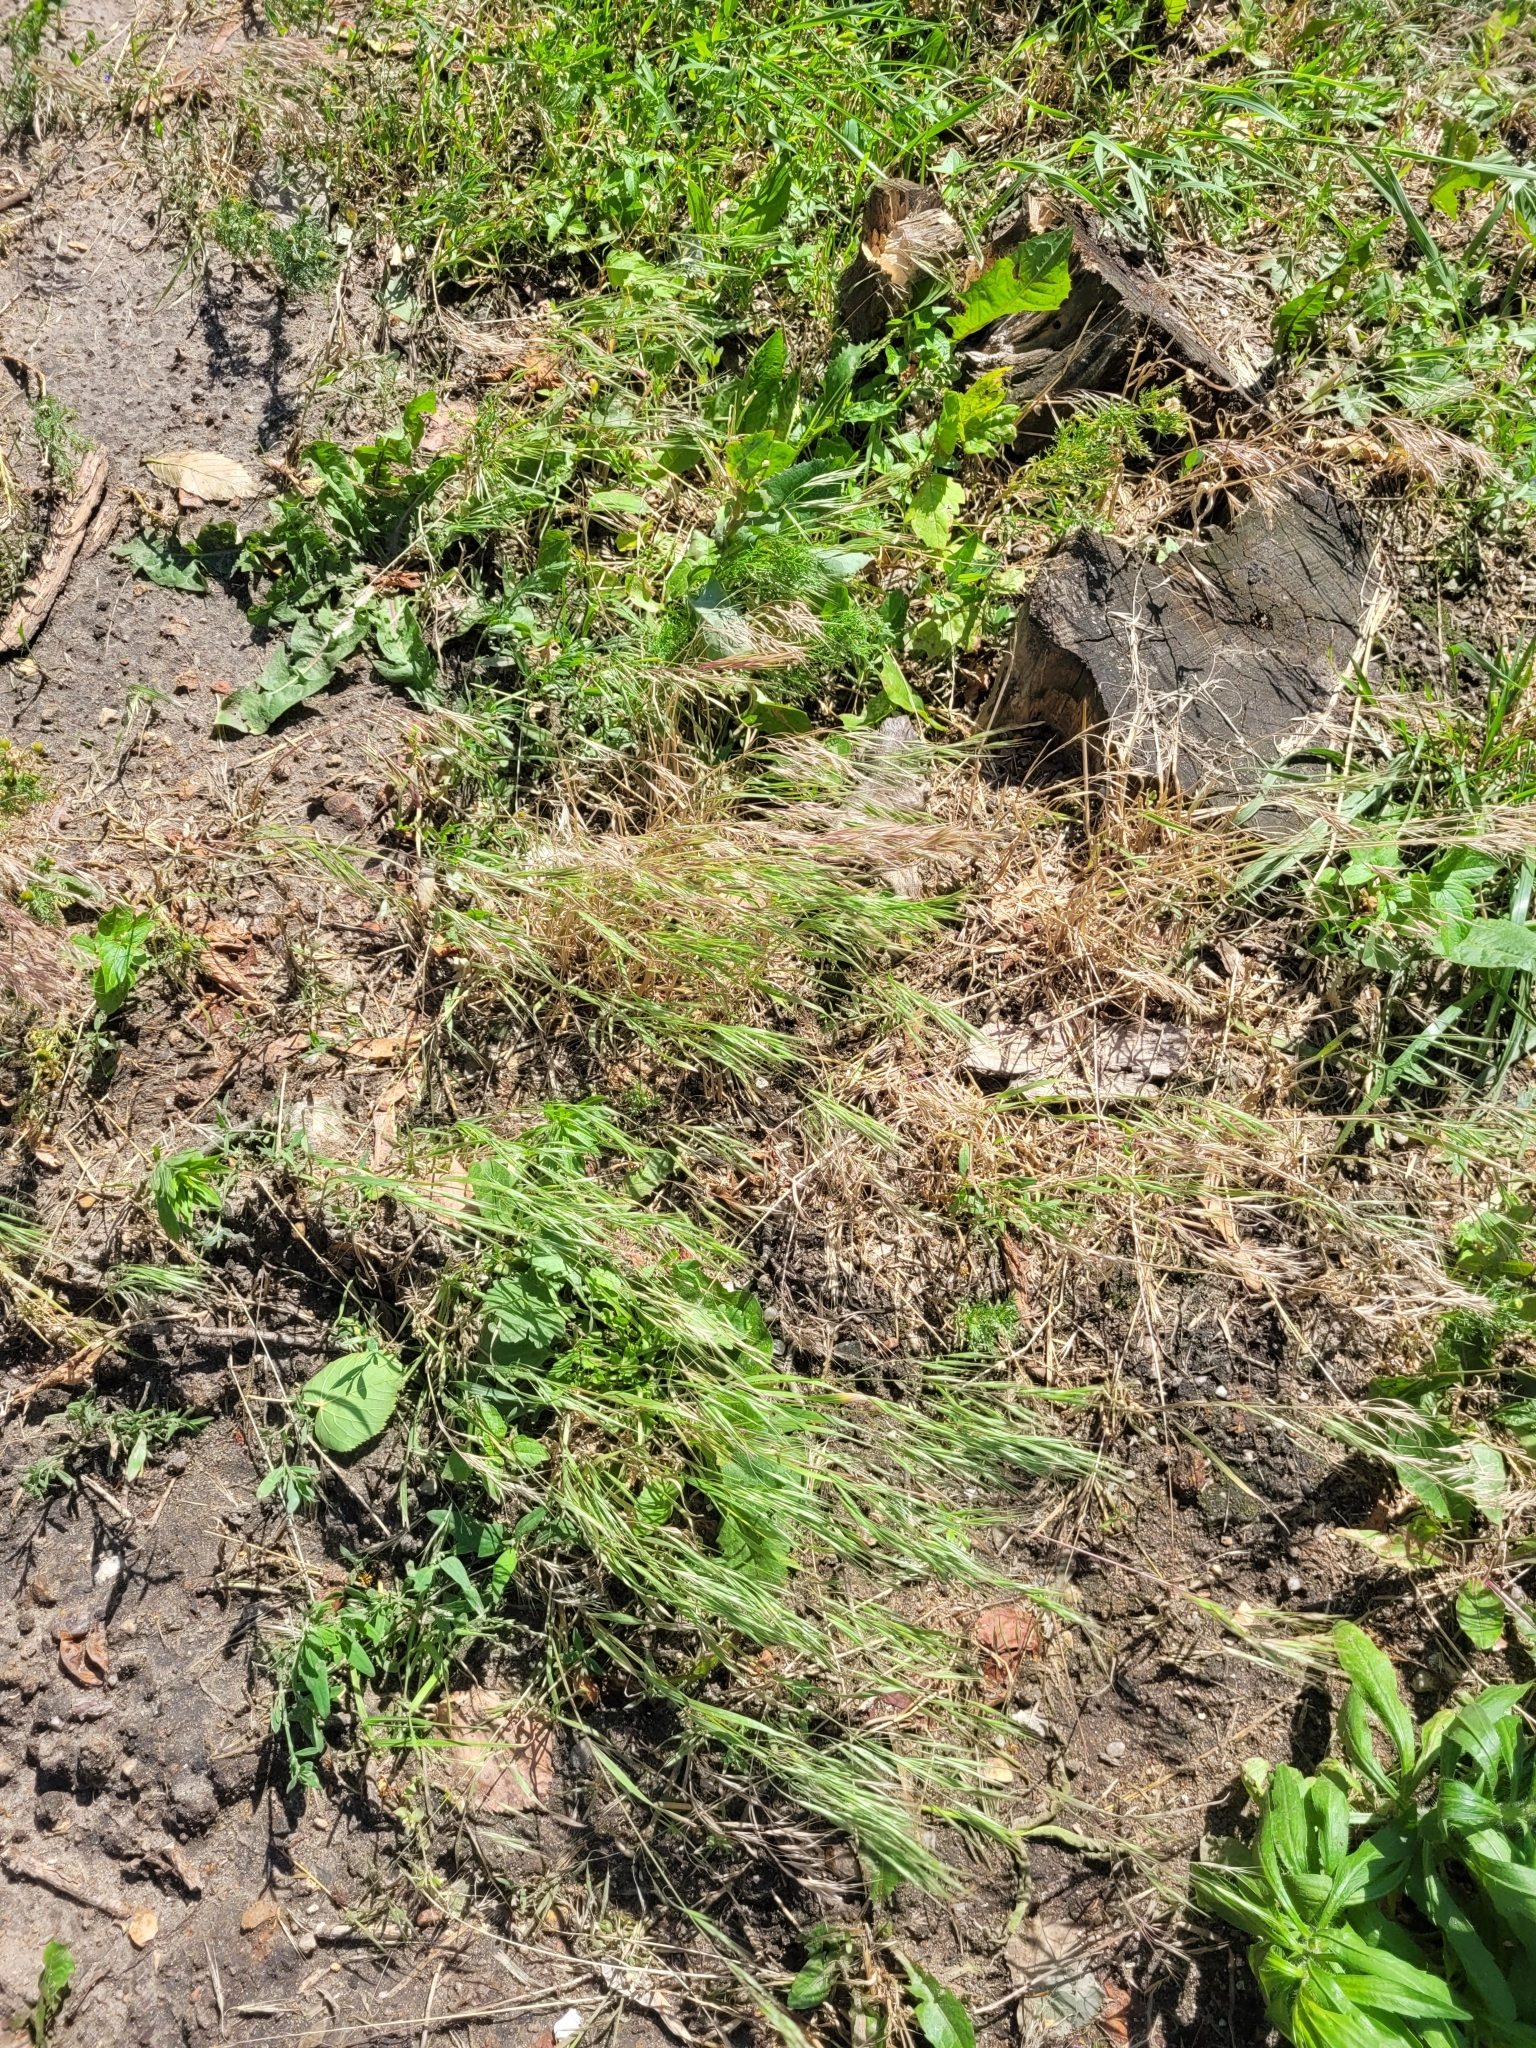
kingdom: Plantae
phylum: Tracheophyta
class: Liliopsida
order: Poales
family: Poaceae
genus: Bromus
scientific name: Bromus tectorum
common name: Cheatgrass
